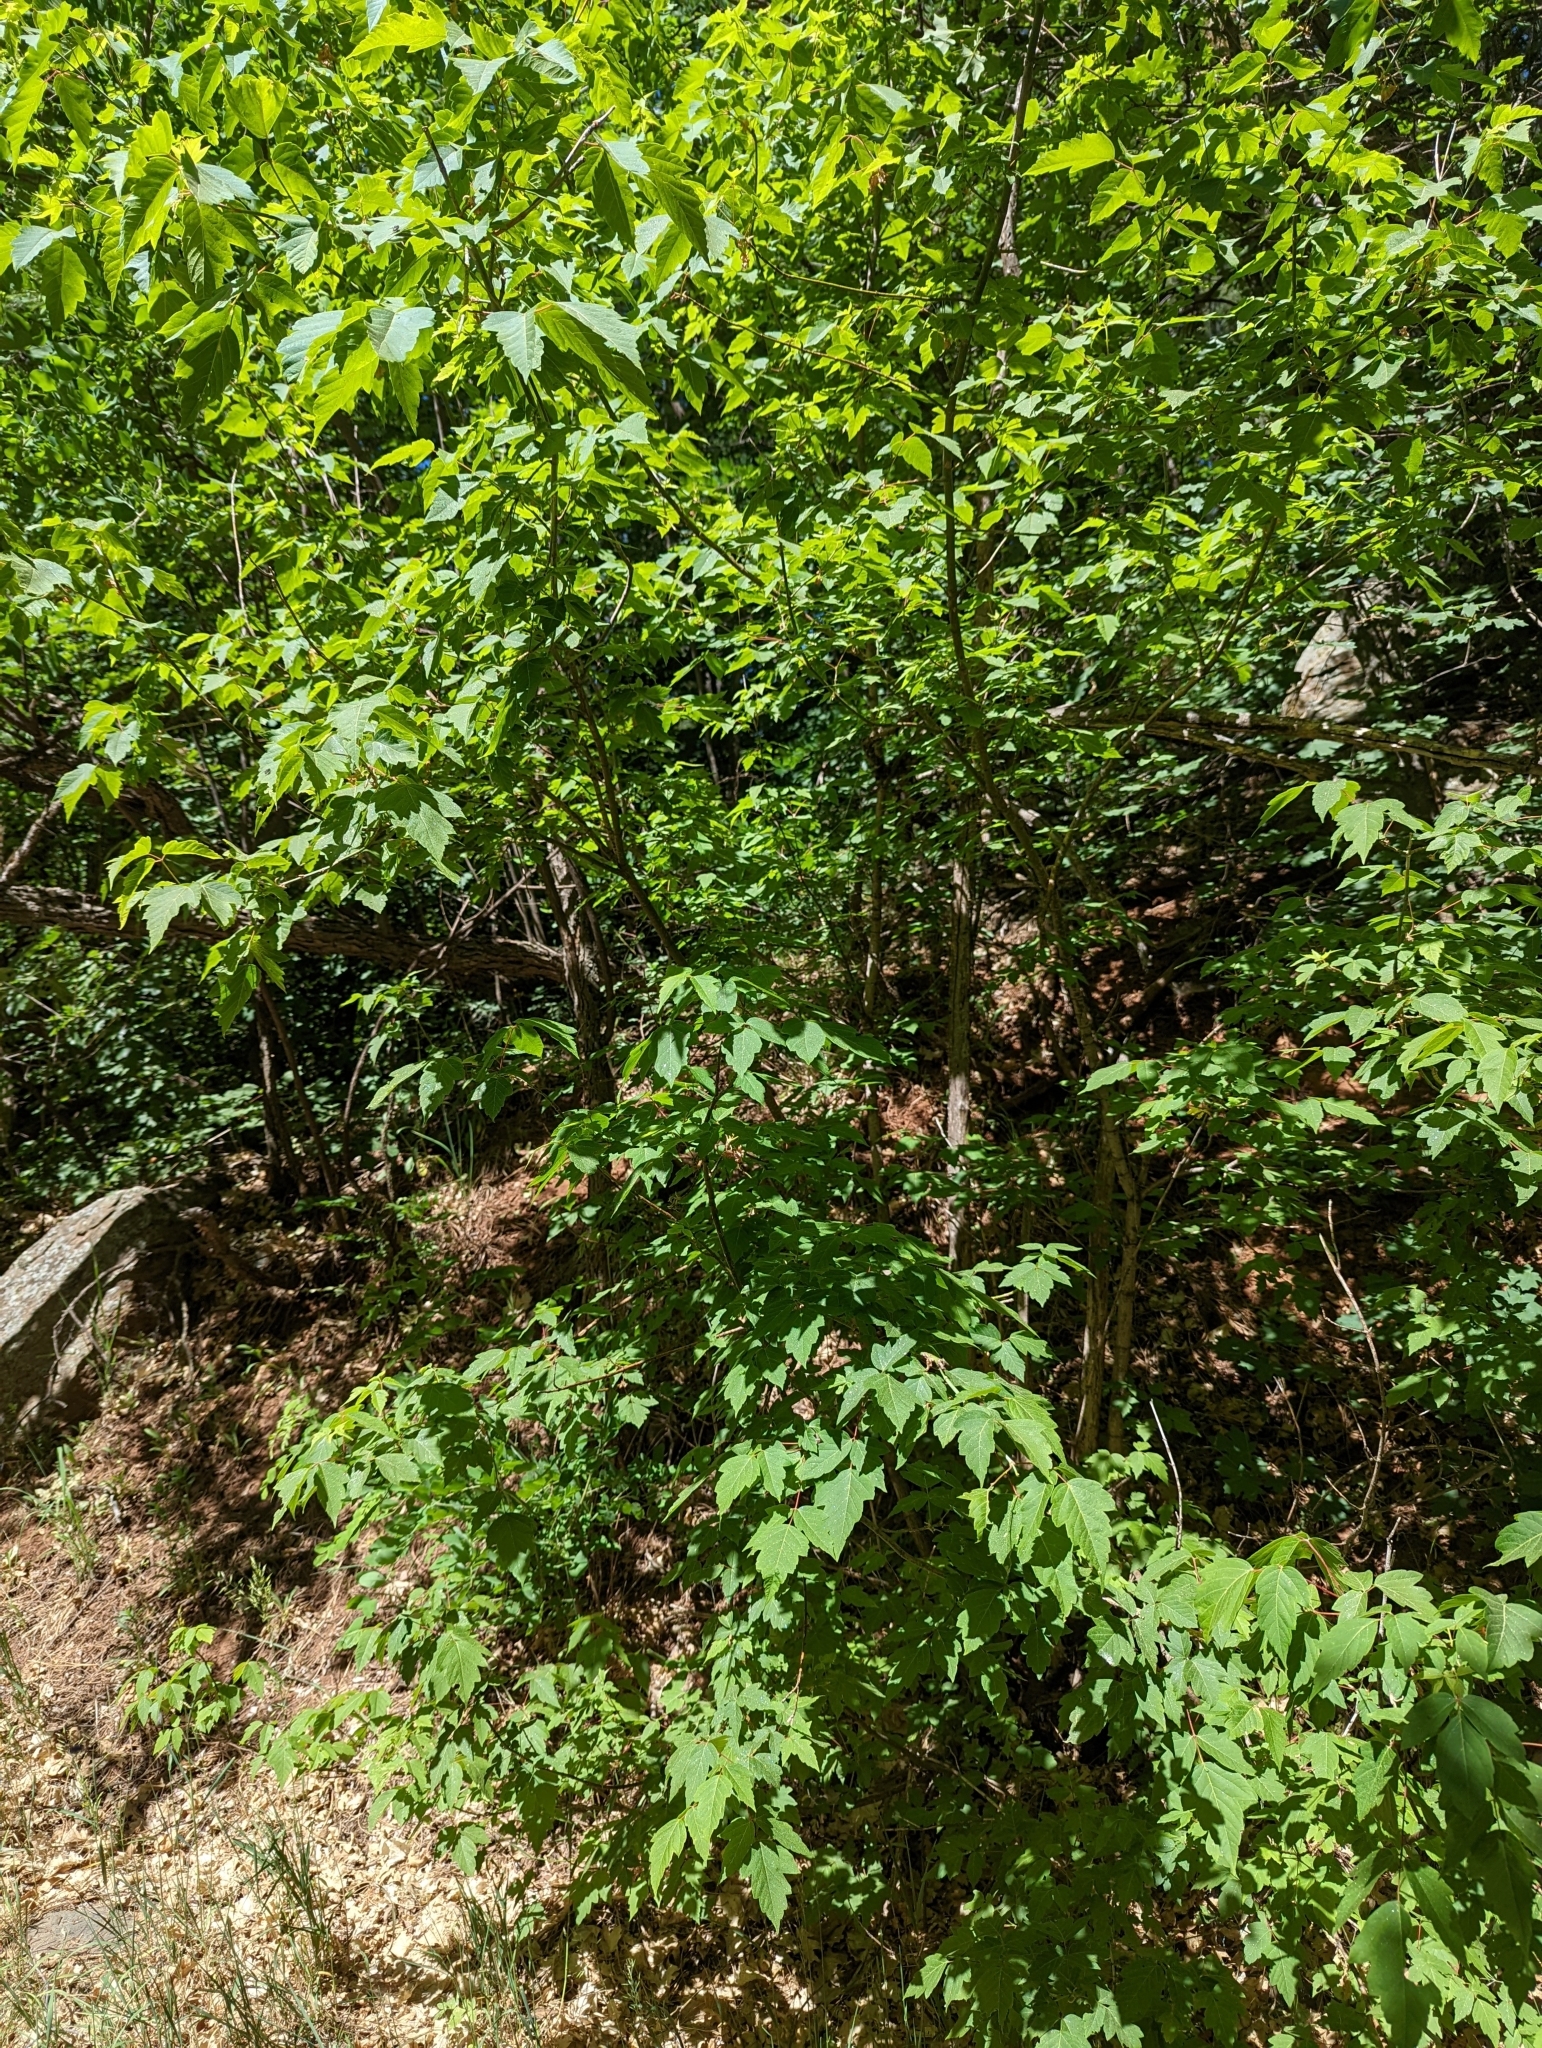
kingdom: Plantae
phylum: Tracheophyta
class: Magnoliopsida
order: Sapindales
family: Sapindaceae
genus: Acer
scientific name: Acer negundo
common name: Ashleaf maple
